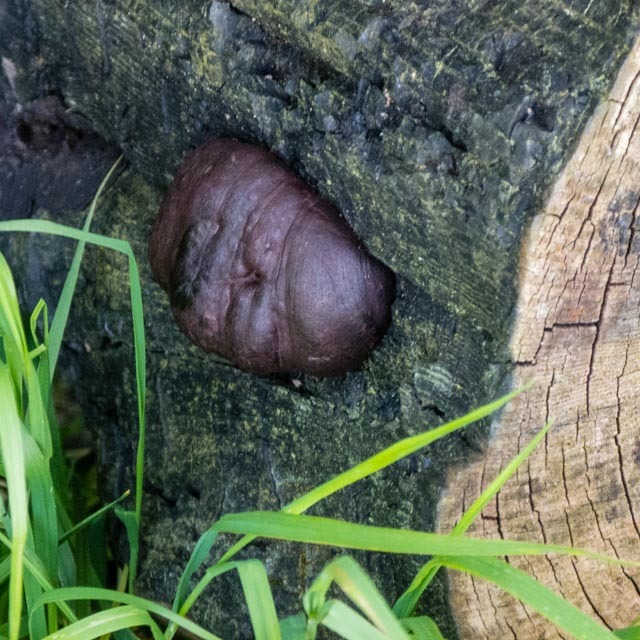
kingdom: Fungi
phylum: Ascomycota
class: Sordariomycetes
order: Xylariales
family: Hypoxylaceae
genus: Daldinia
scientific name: Daldinia concentrica
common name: Cramp balls
